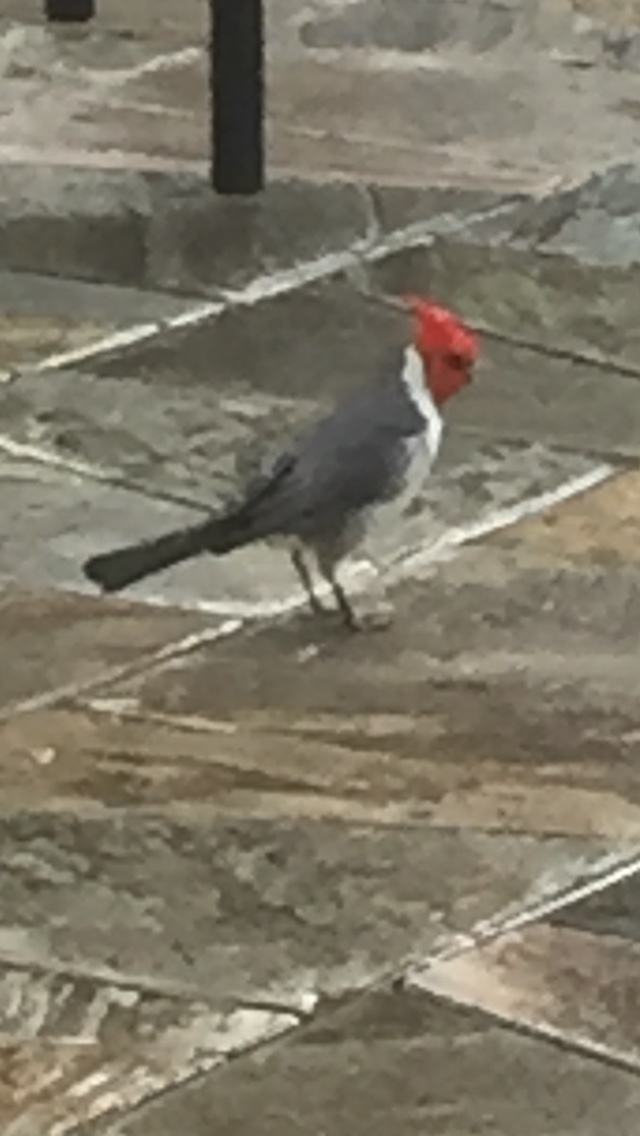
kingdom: Animalia
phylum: Chordata
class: Aves
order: Passeriformes
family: Thraupidae
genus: Paroaria
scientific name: Paroaria coronata
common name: Red-crested cardinal
